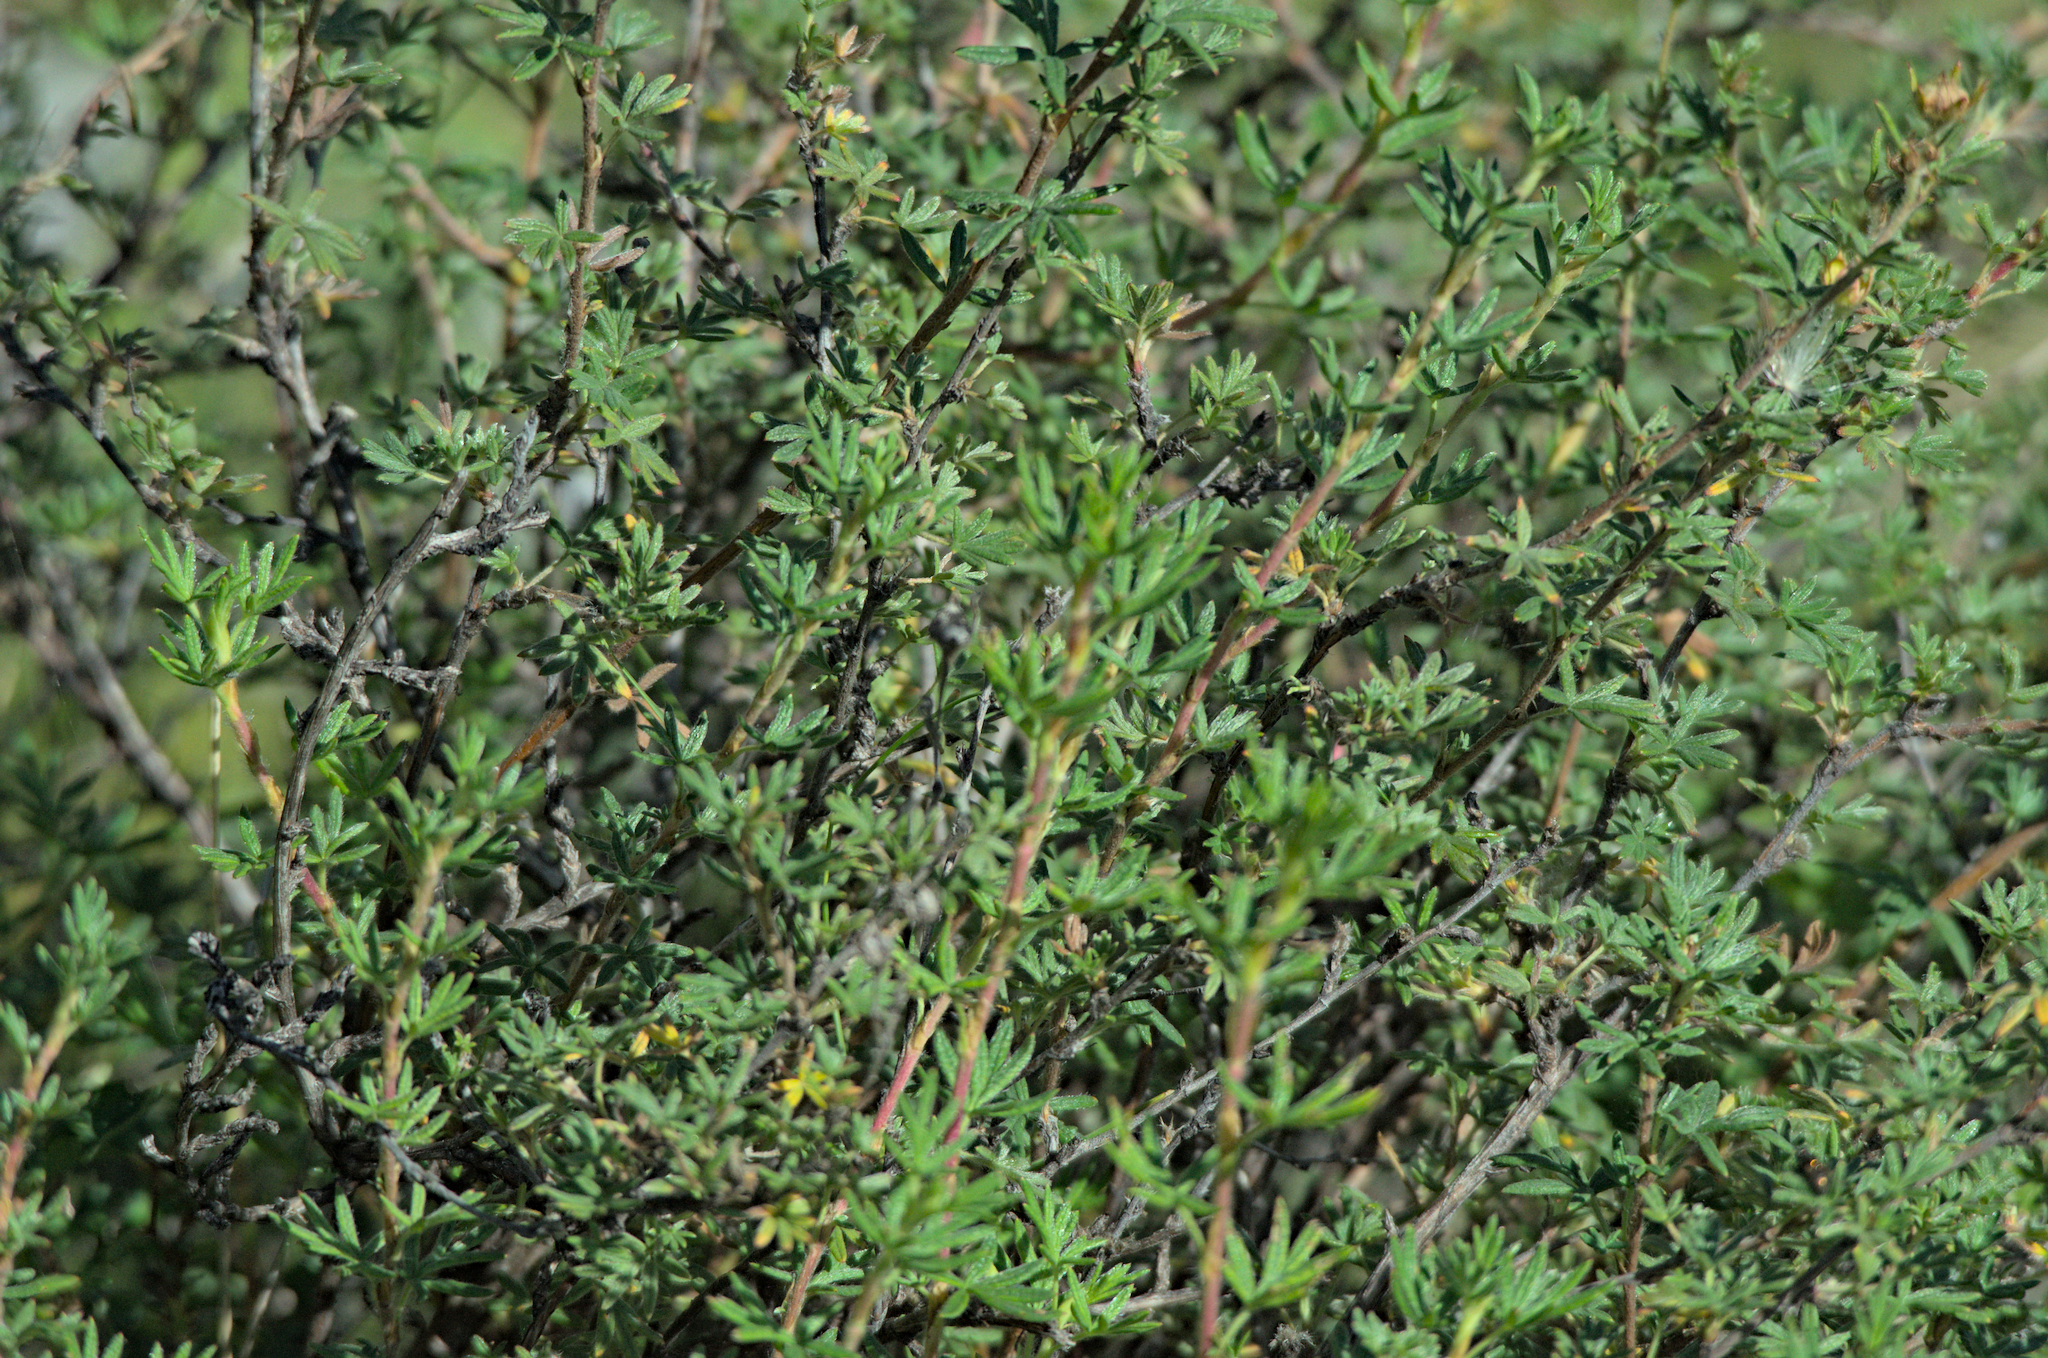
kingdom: Plantae
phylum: Tracheophyta
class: Magnoliopsida
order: Rosales
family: Rosaceae
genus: Dasiphora
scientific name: Dasiphora fruticosa
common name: Shrubby cinquefoil
